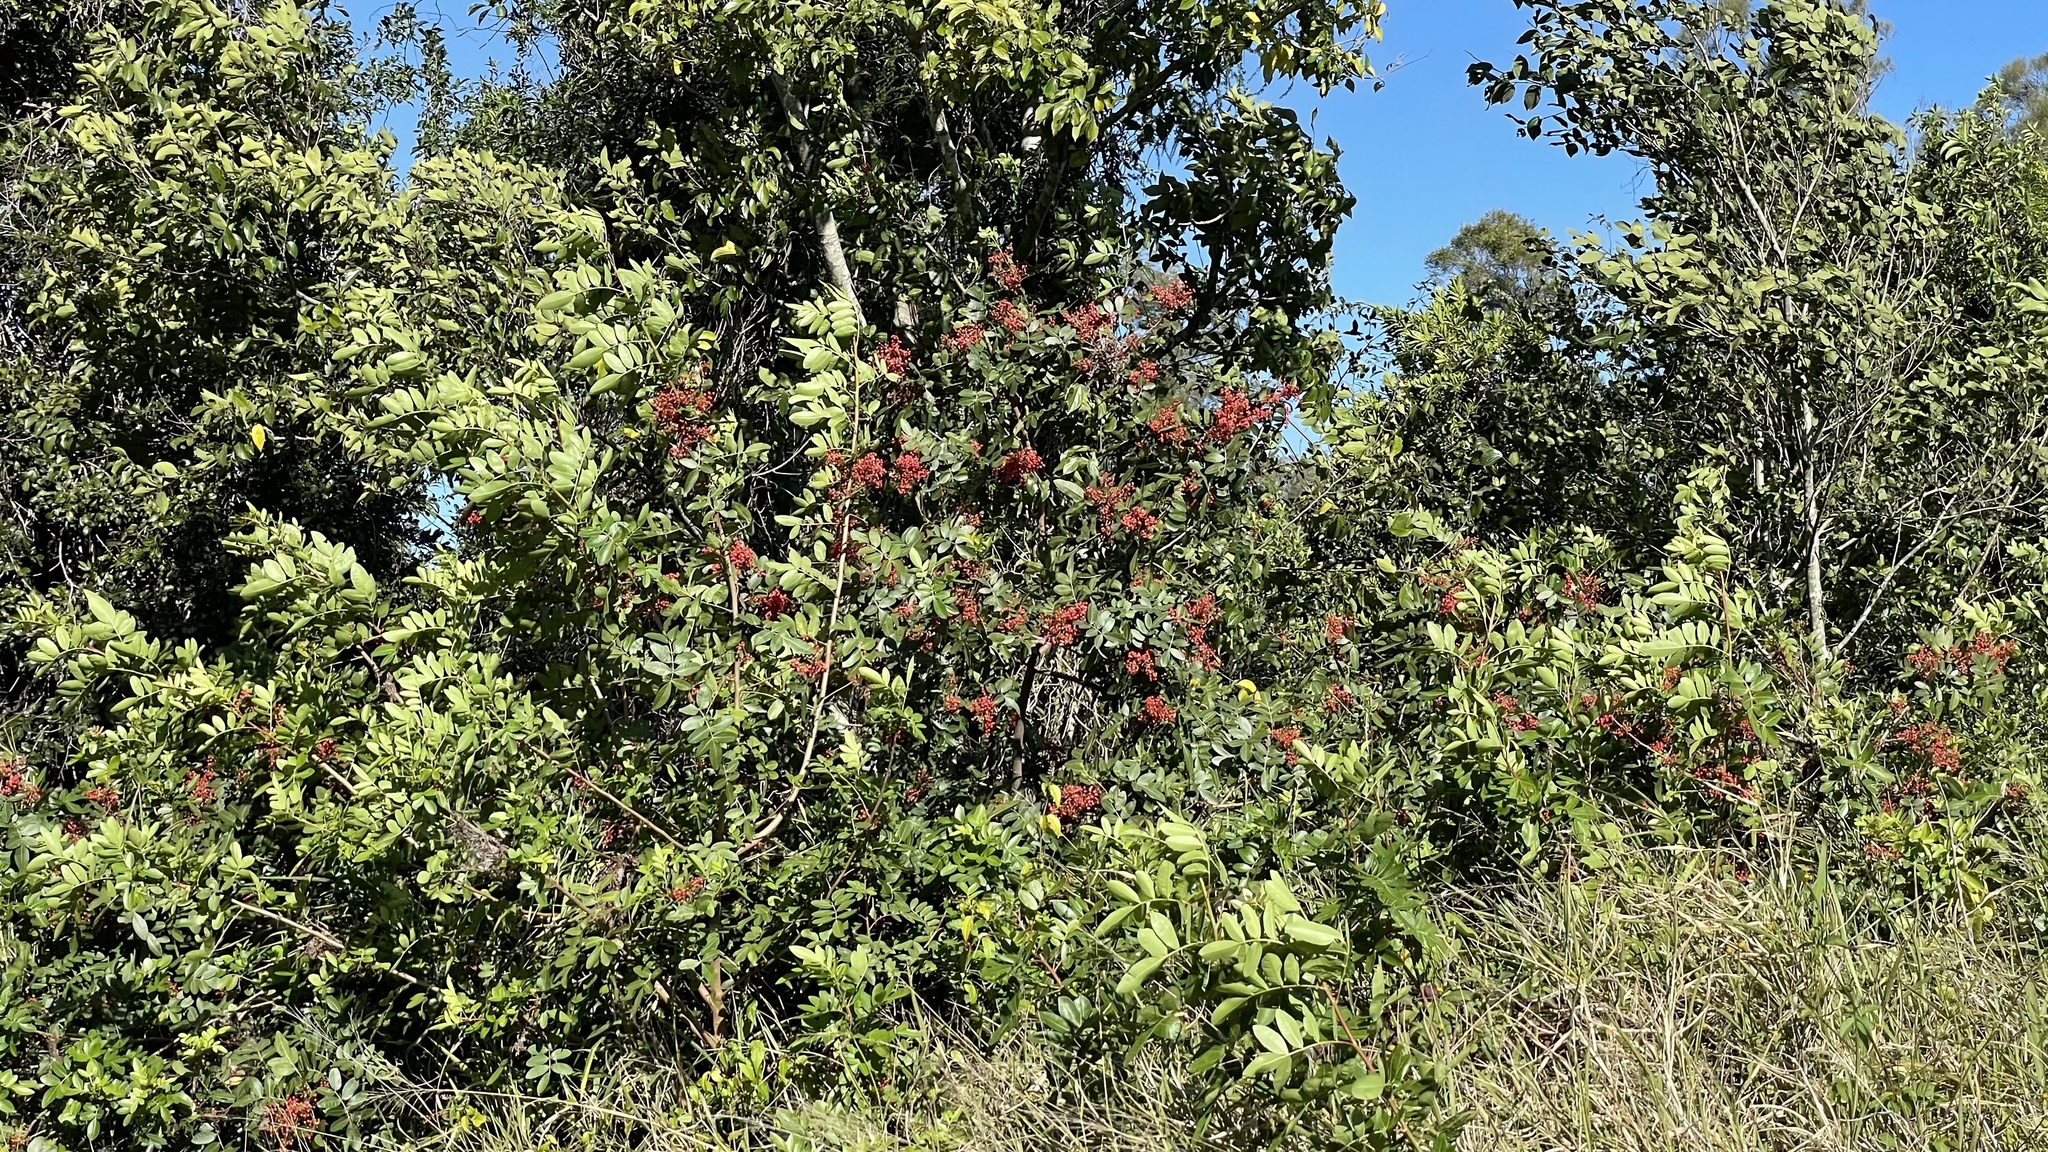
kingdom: Plantae
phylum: Tracheophyta
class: Magnoliopsida
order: Sapindales
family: Anacardiaceae
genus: Schinus
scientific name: Schinus terebinthifolia
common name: Brazilian peppertree
